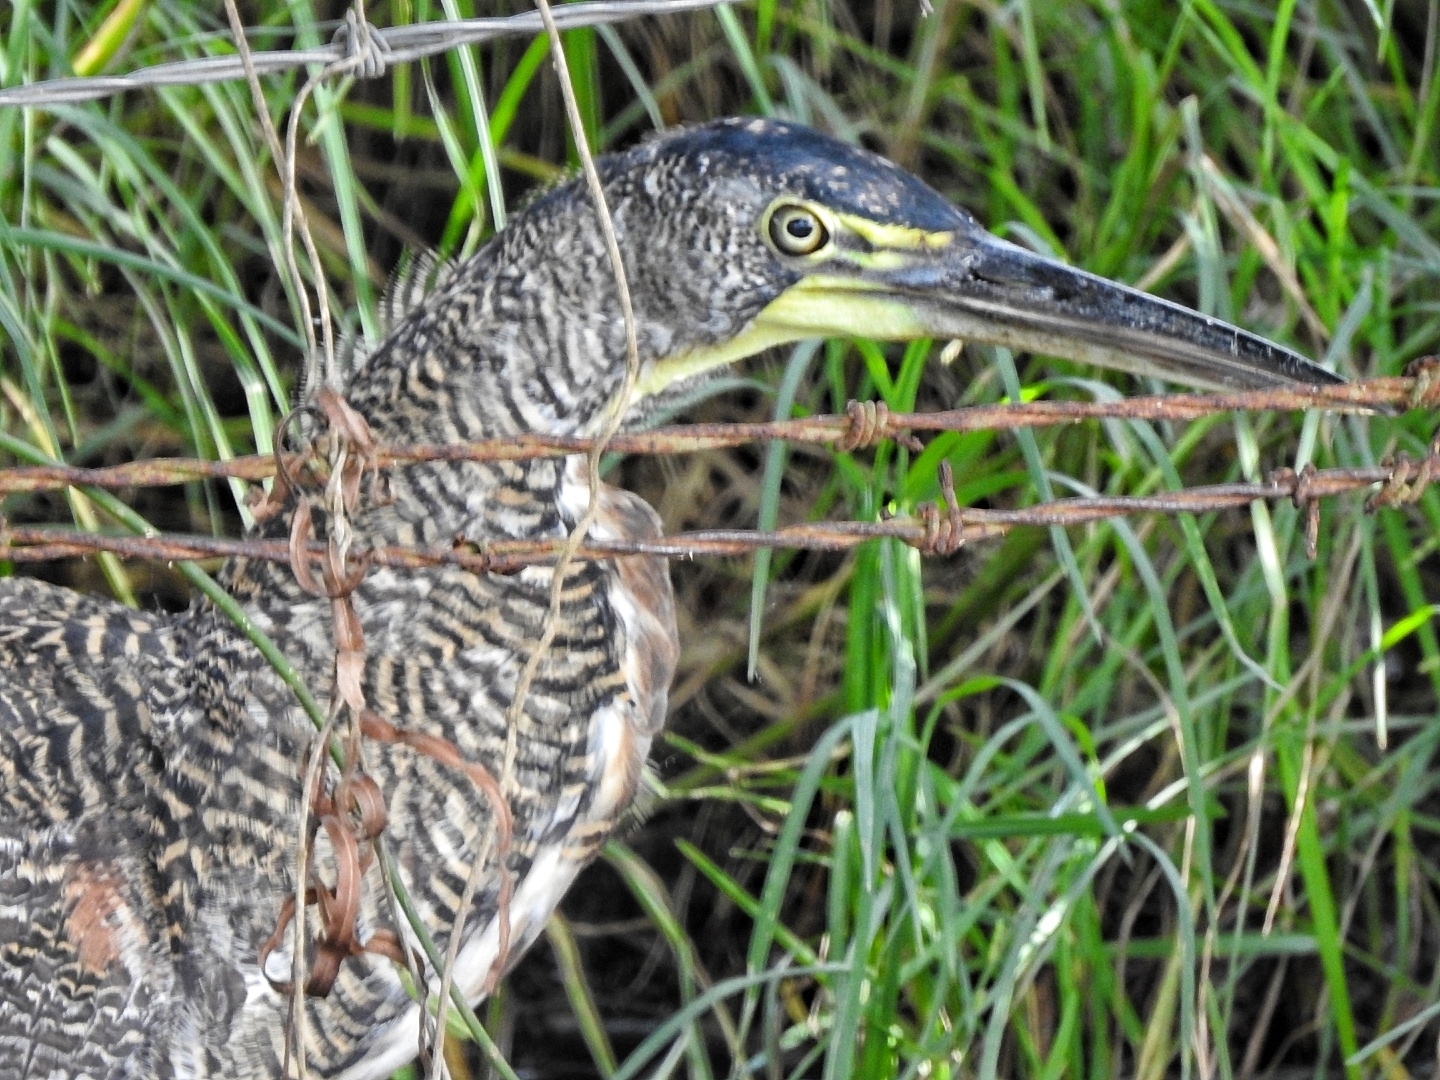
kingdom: Animalia
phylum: Chordata
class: Aves
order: Pelecaniformes
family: Ardeidae
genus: Tigrisoma
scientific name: Tigrisoma mexicanum
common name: Bare-throated tiger-heron
